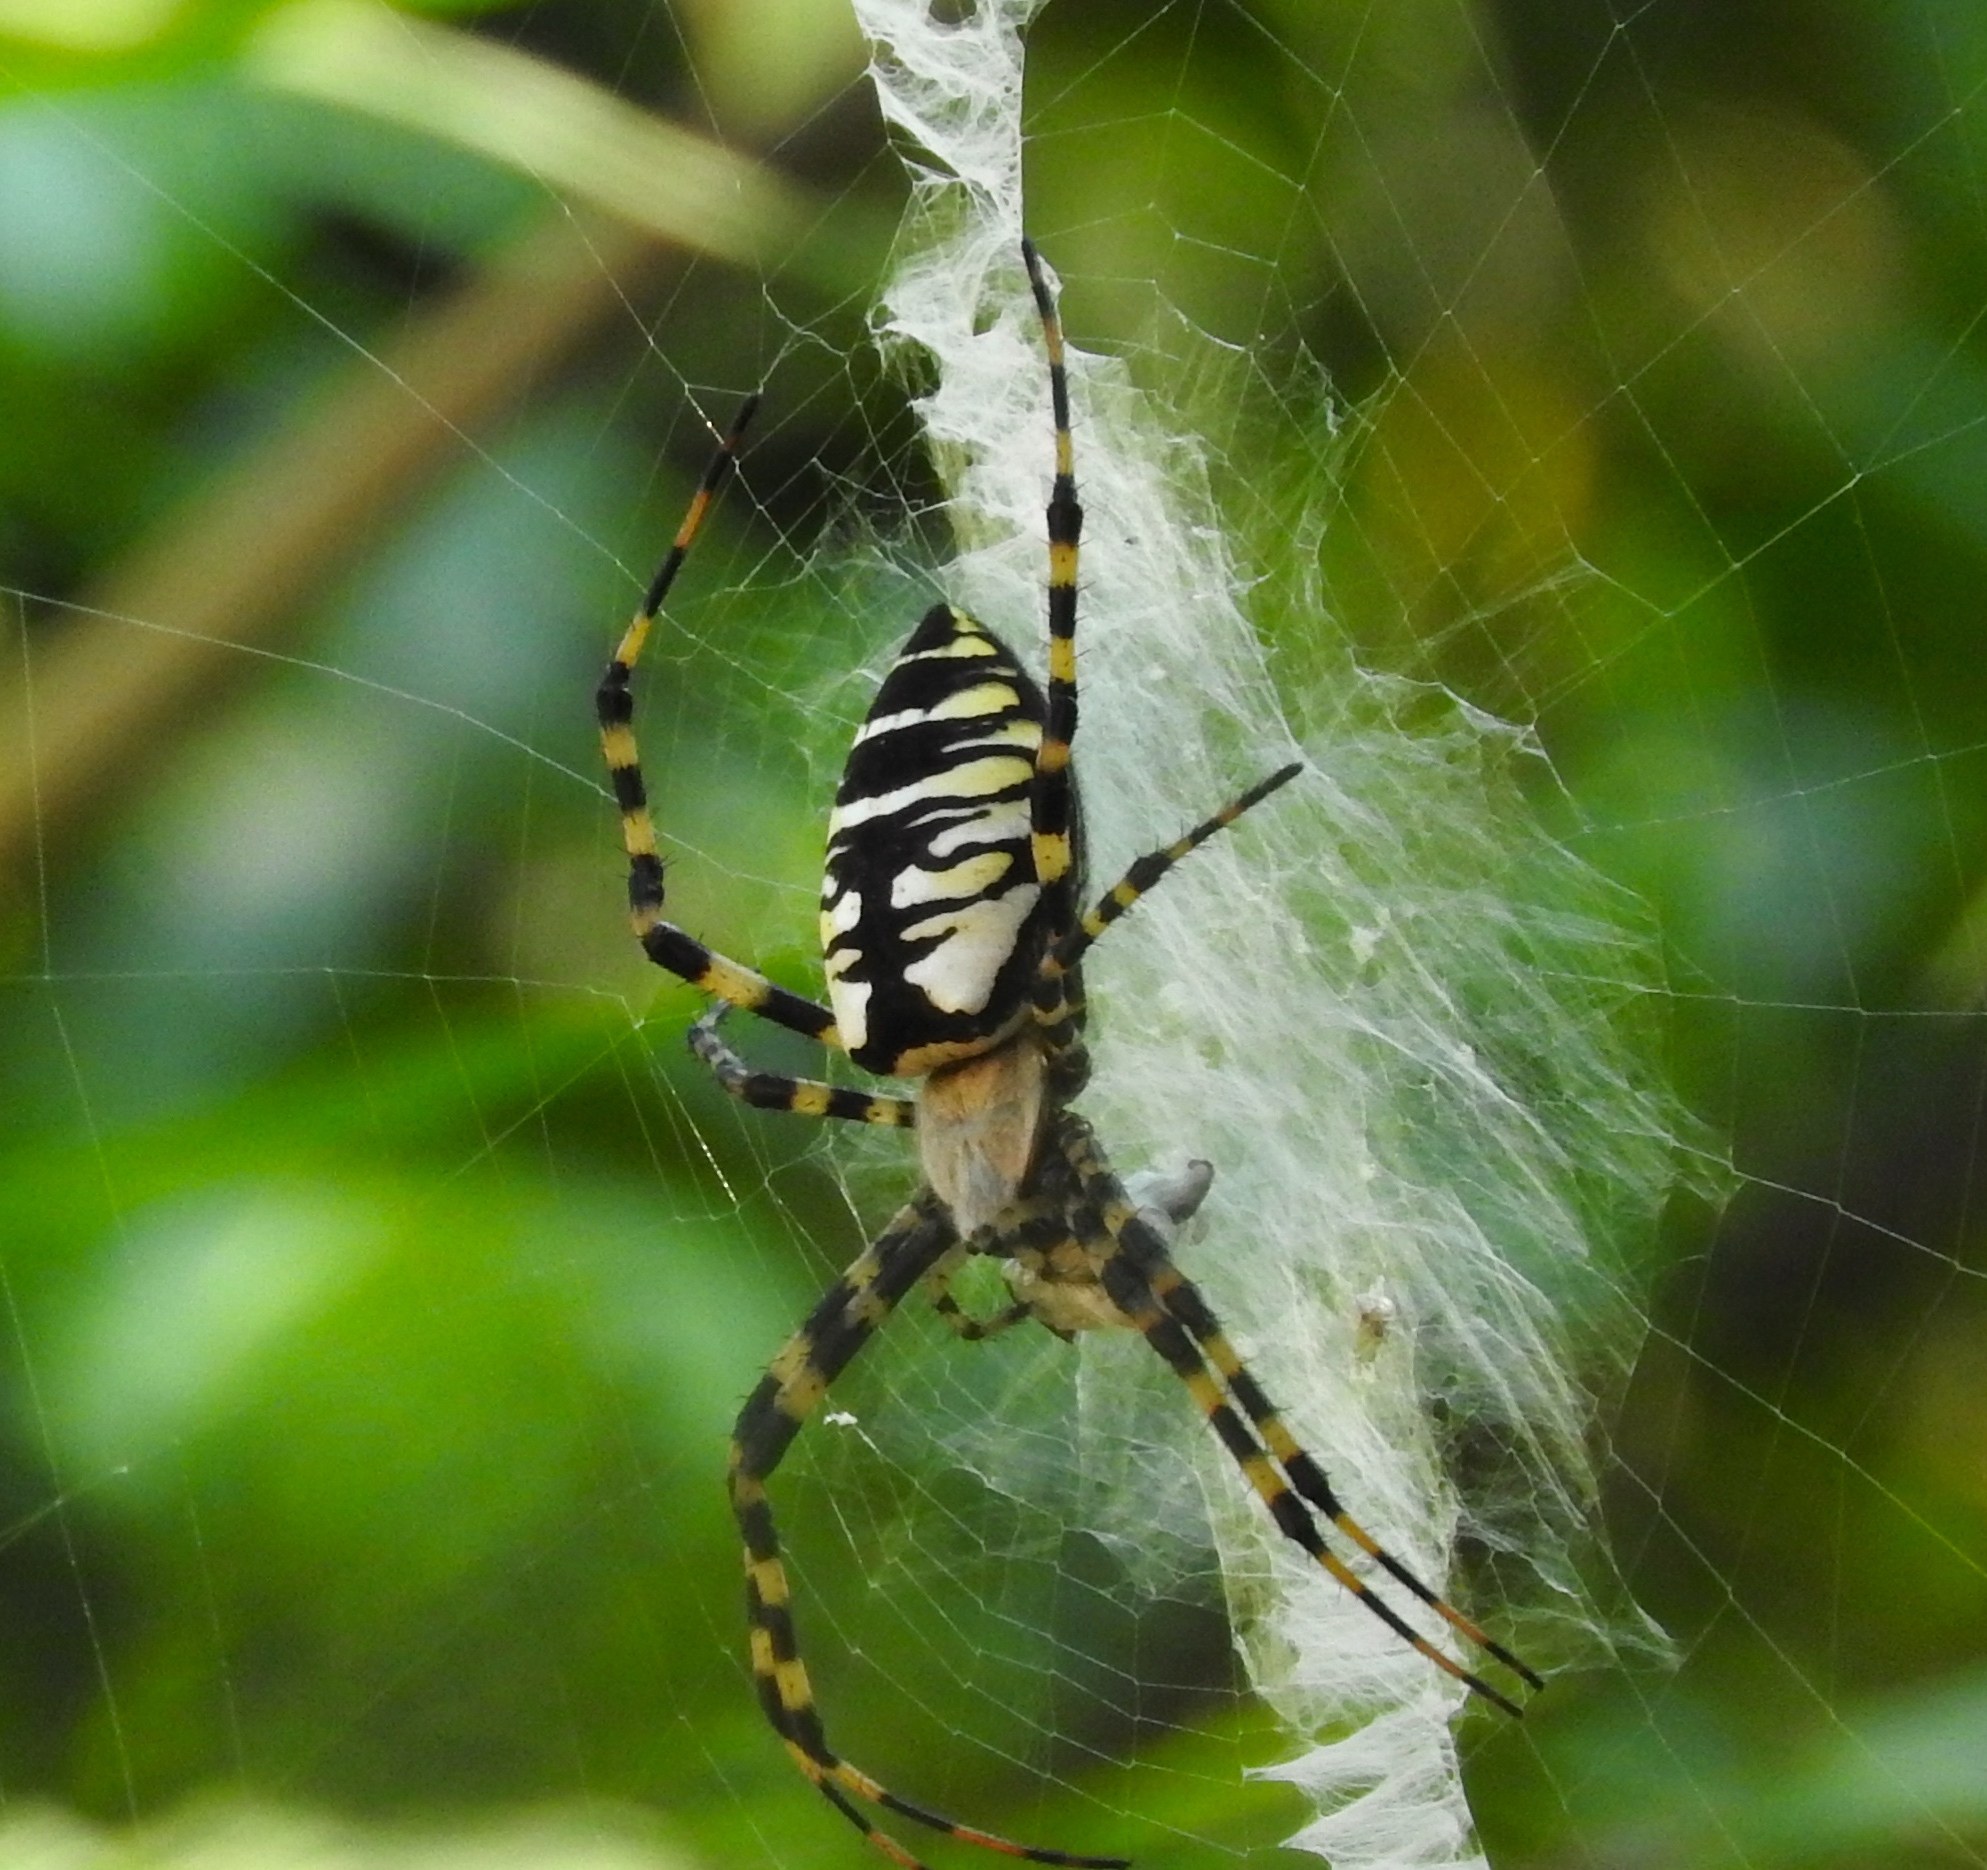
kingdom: Animalia
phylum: Arthropoda
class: Arachnida
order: Araneae
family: Araneidae
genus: Argiope
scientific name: Argiope aurantia
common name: Orb weavers
